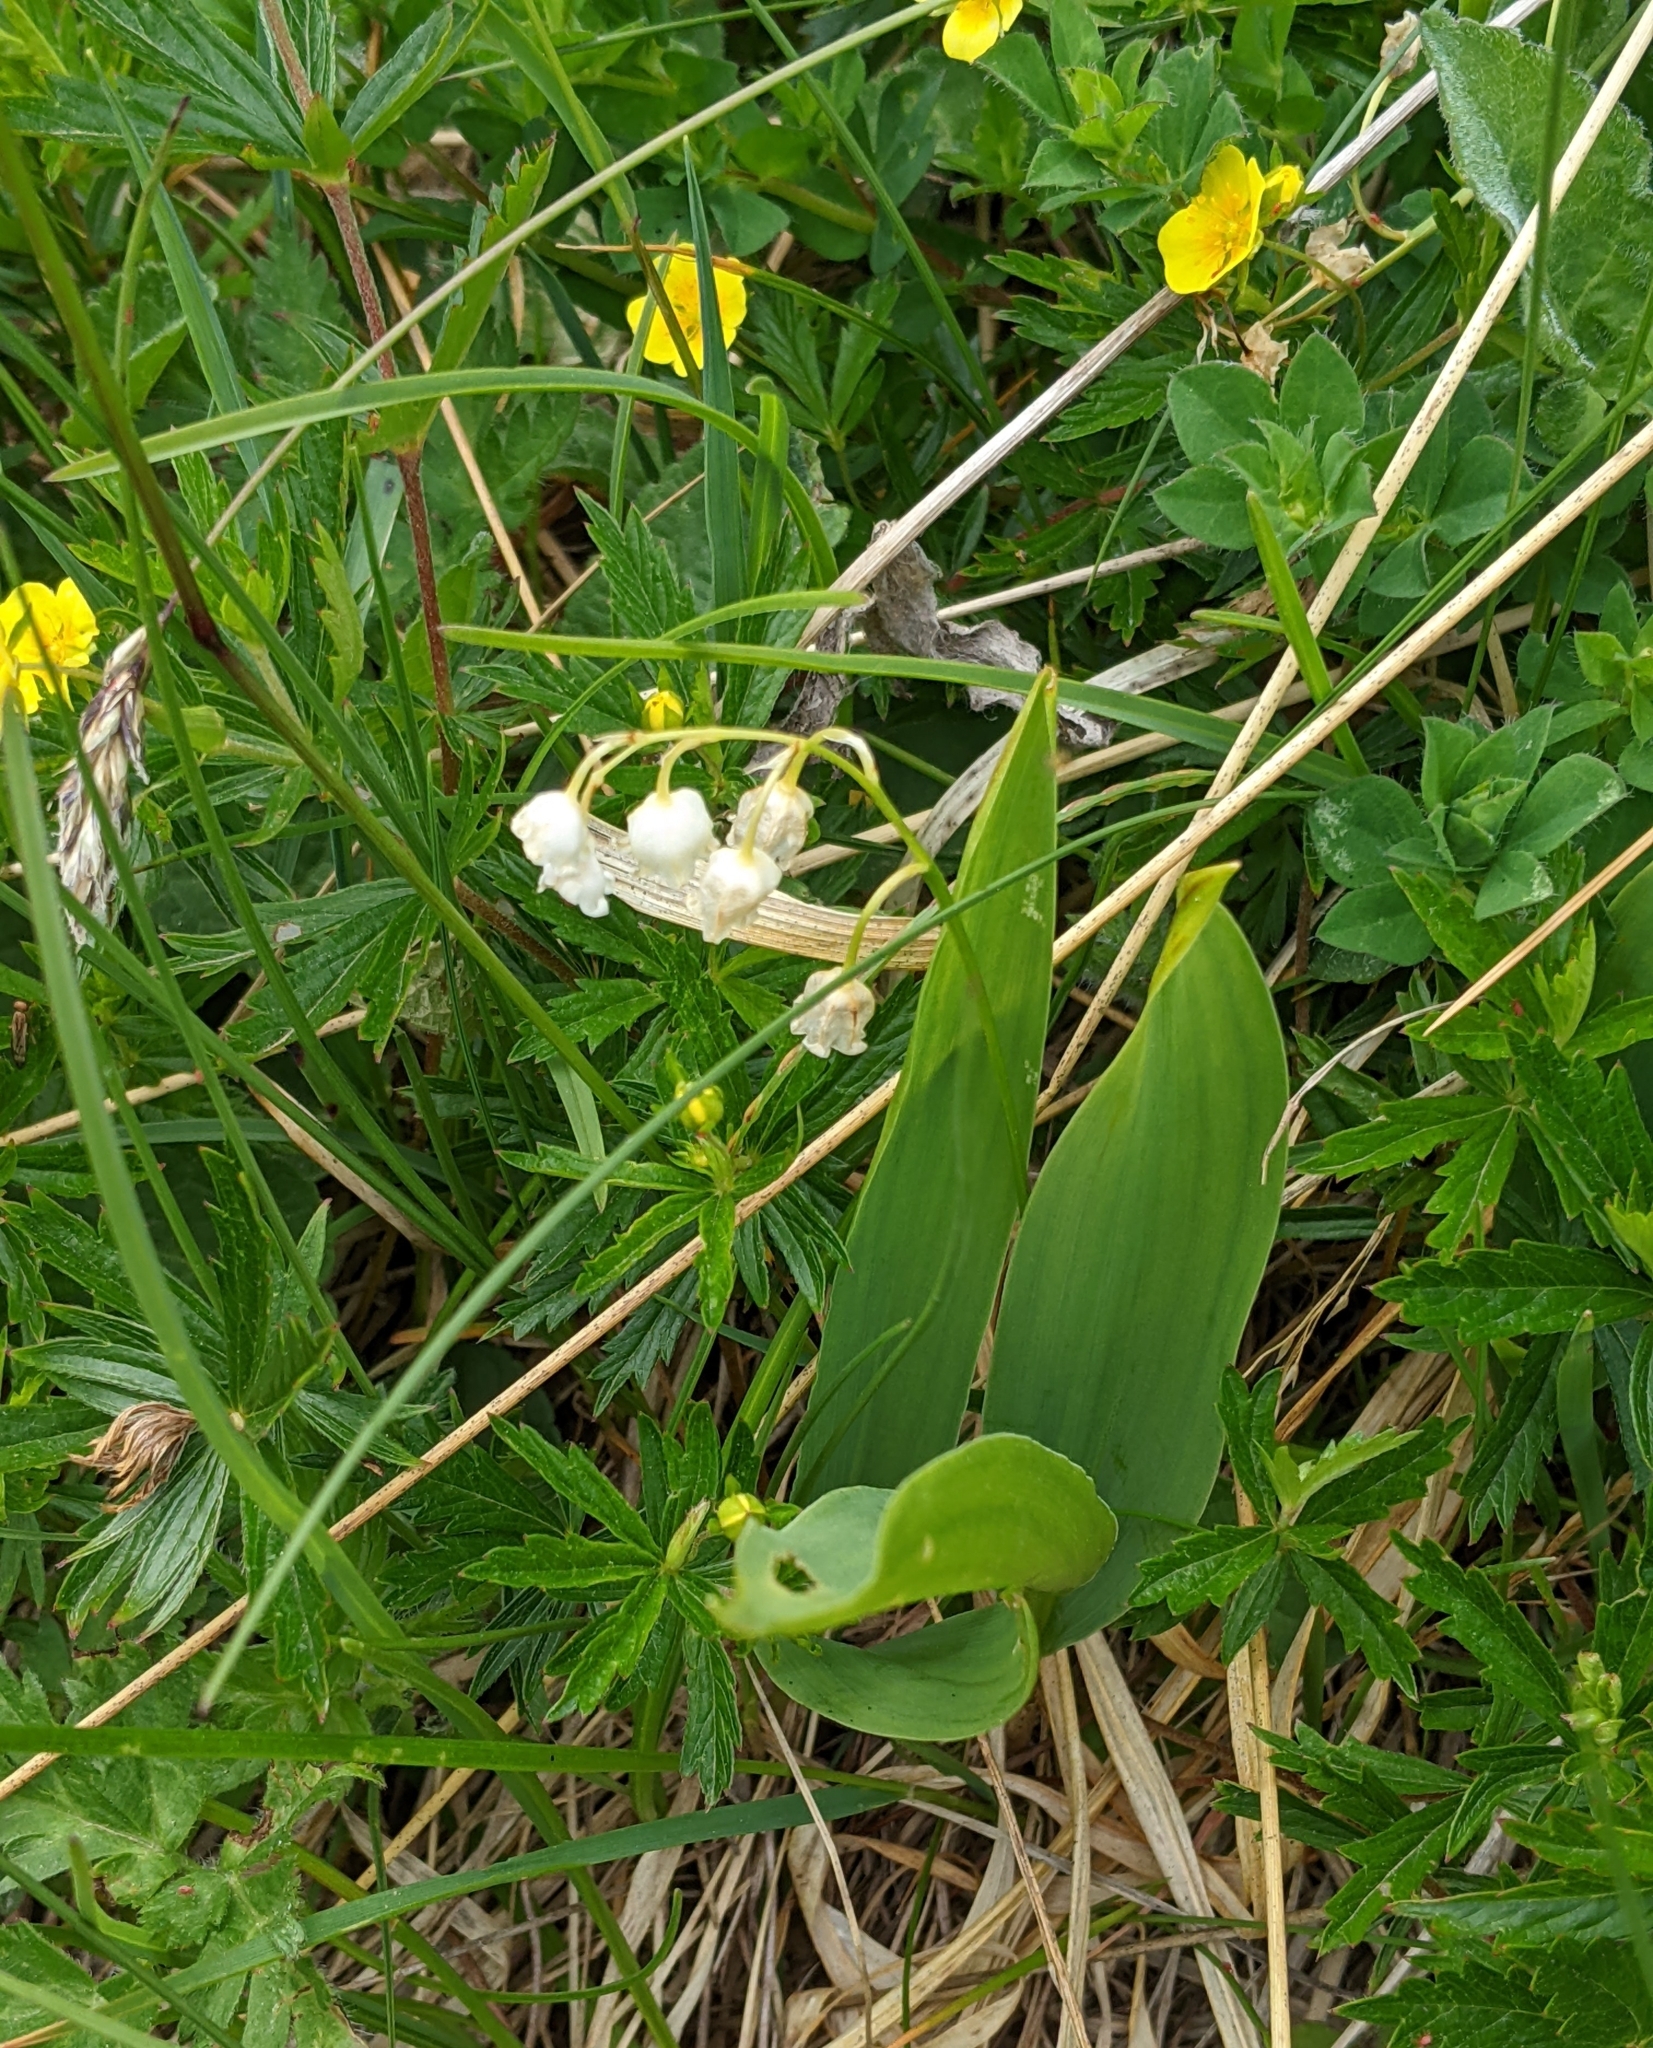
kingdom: Plantae
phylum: Tracheophyta
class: Liliopsida
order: Asparagales
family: Asparagaceae
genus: Convallaria
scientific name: Convallaria majalis
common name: Lily-of-the-valley
